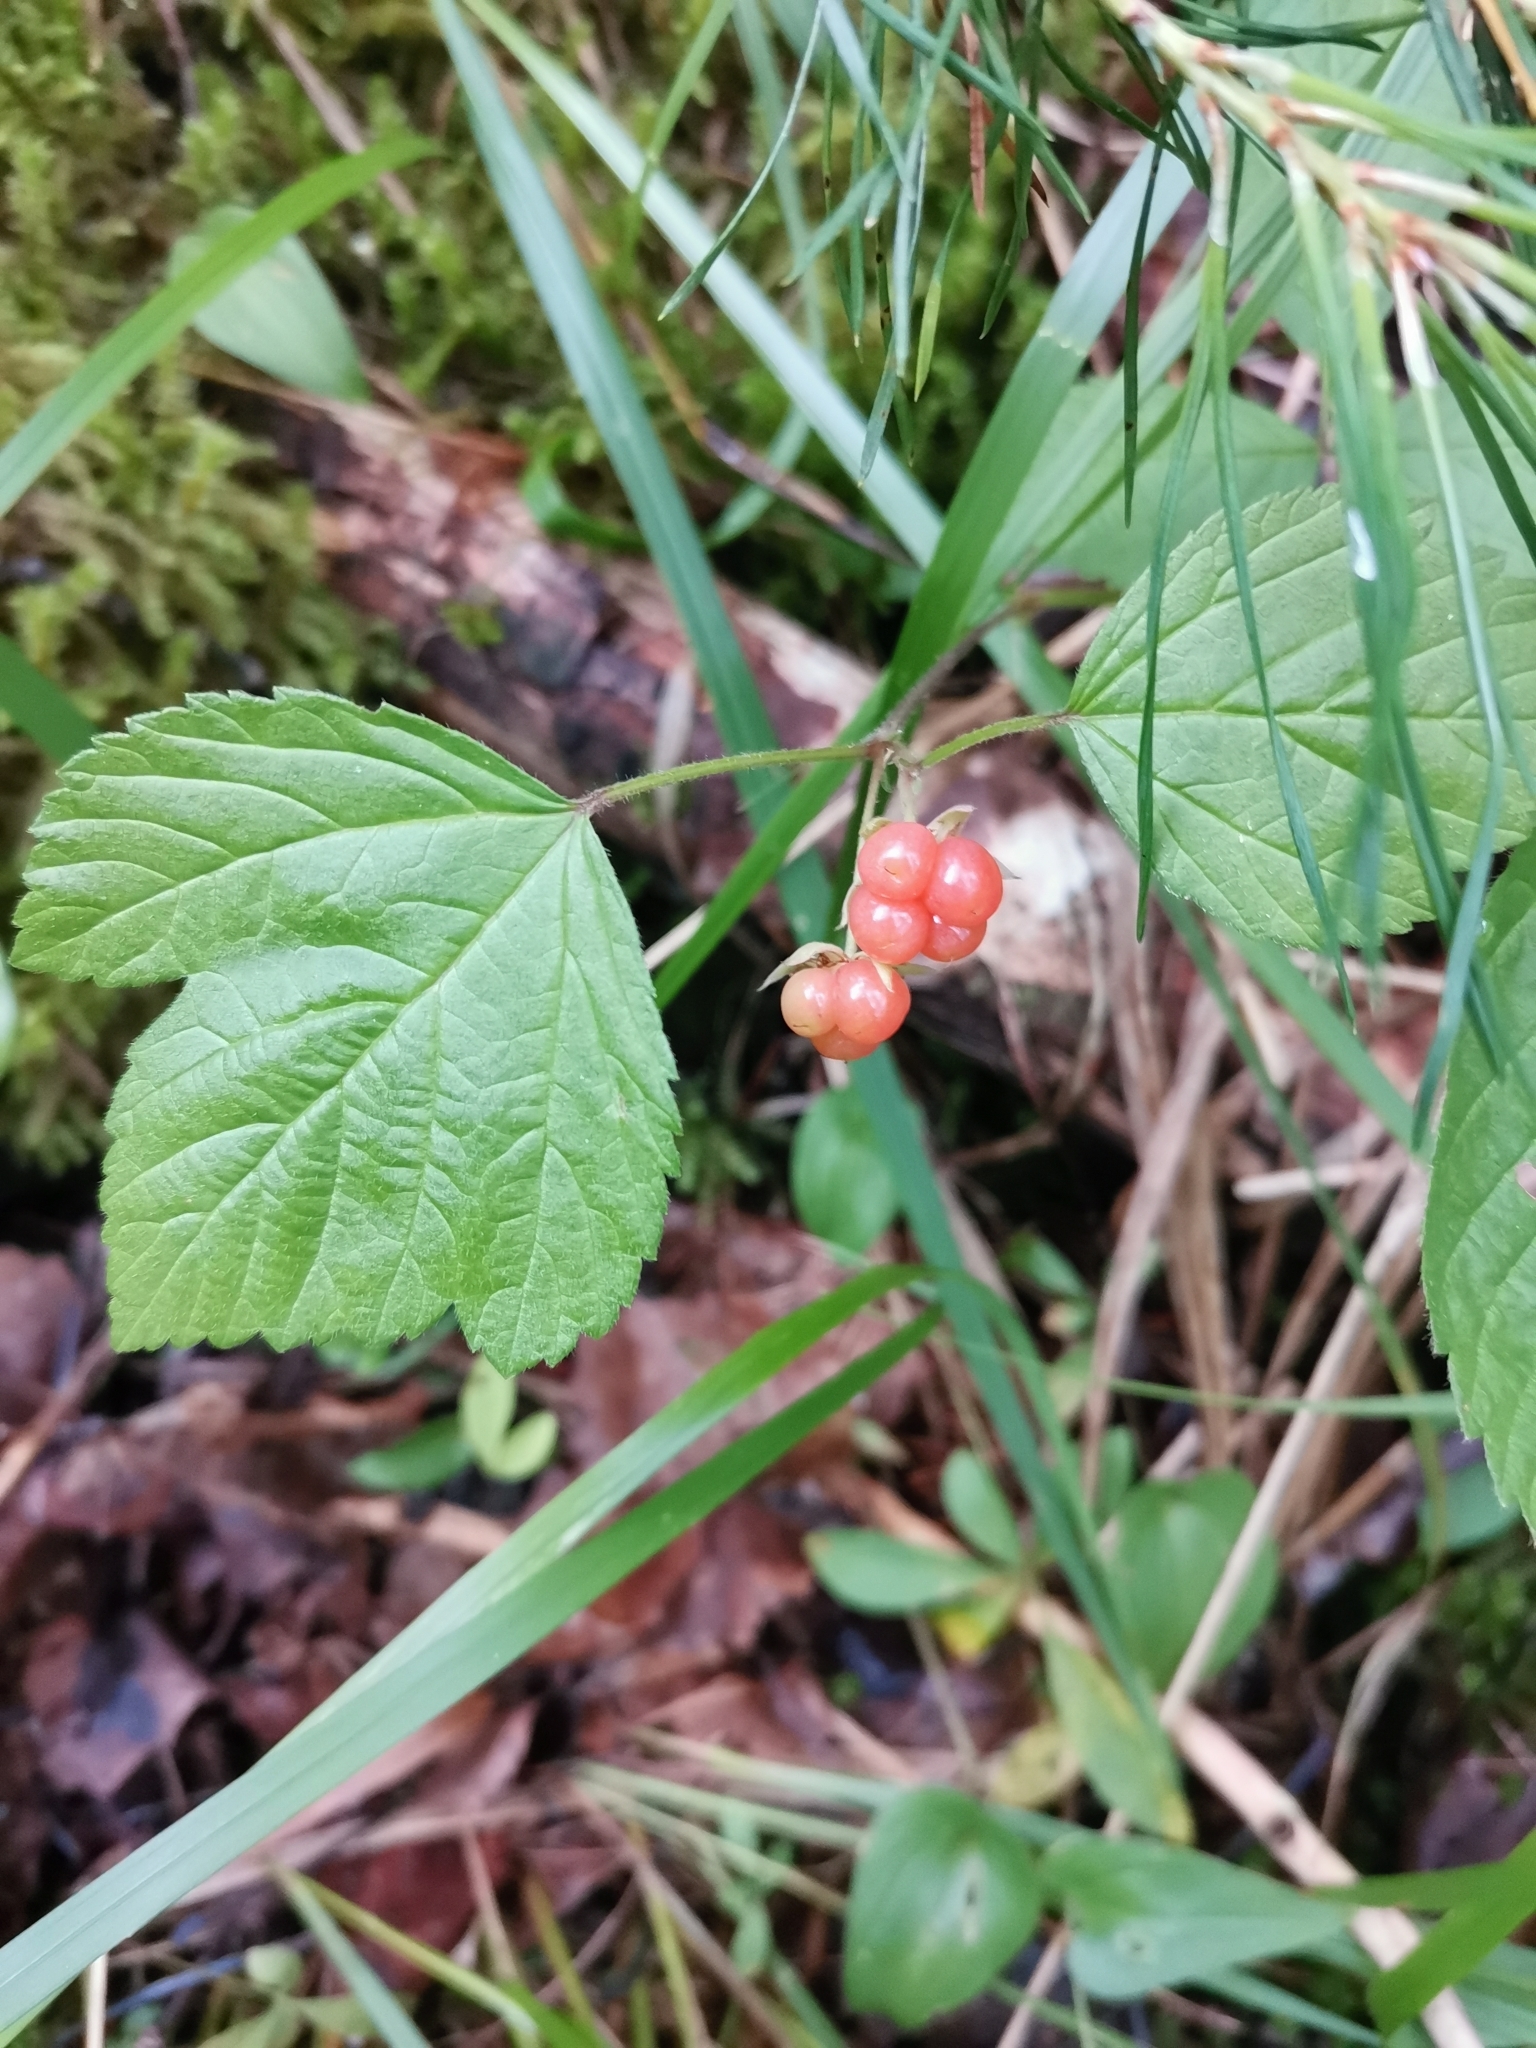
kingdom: Plantae
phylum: Tracheophyta
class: Magnoliopsida
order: Rosales
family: Rosaceae
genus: Rubus
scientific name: Rubus saxatilis
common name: Stone bramble
